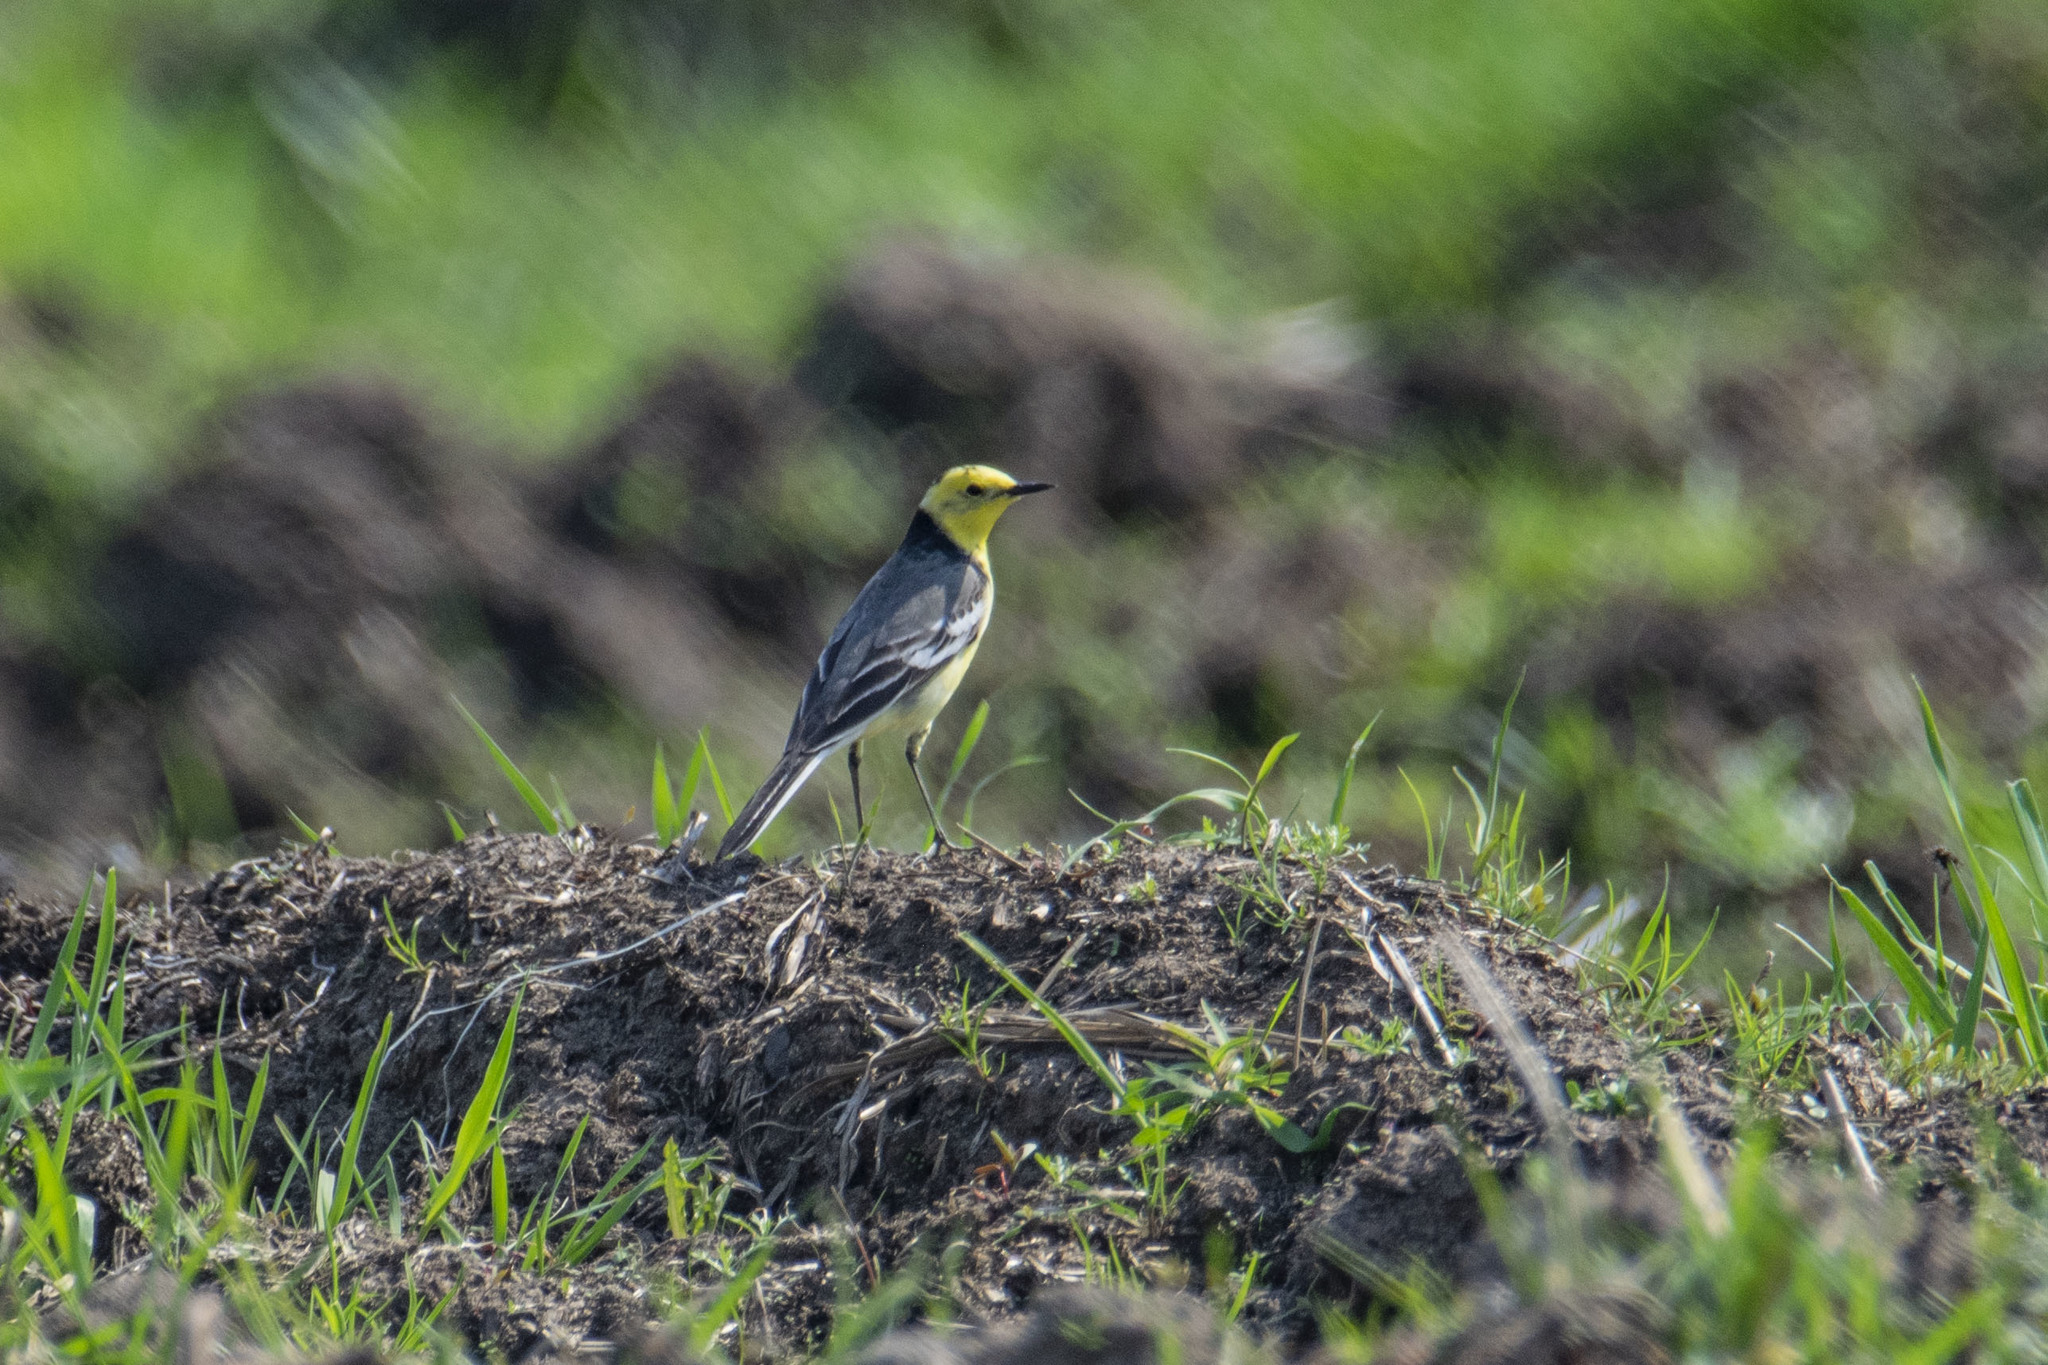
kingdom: Animalia
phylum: Chordata
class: Aves
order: Passeriformes
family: Motacillidae
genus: Motacilla
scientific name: Motacilla citreola
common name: Citrine wagtail
